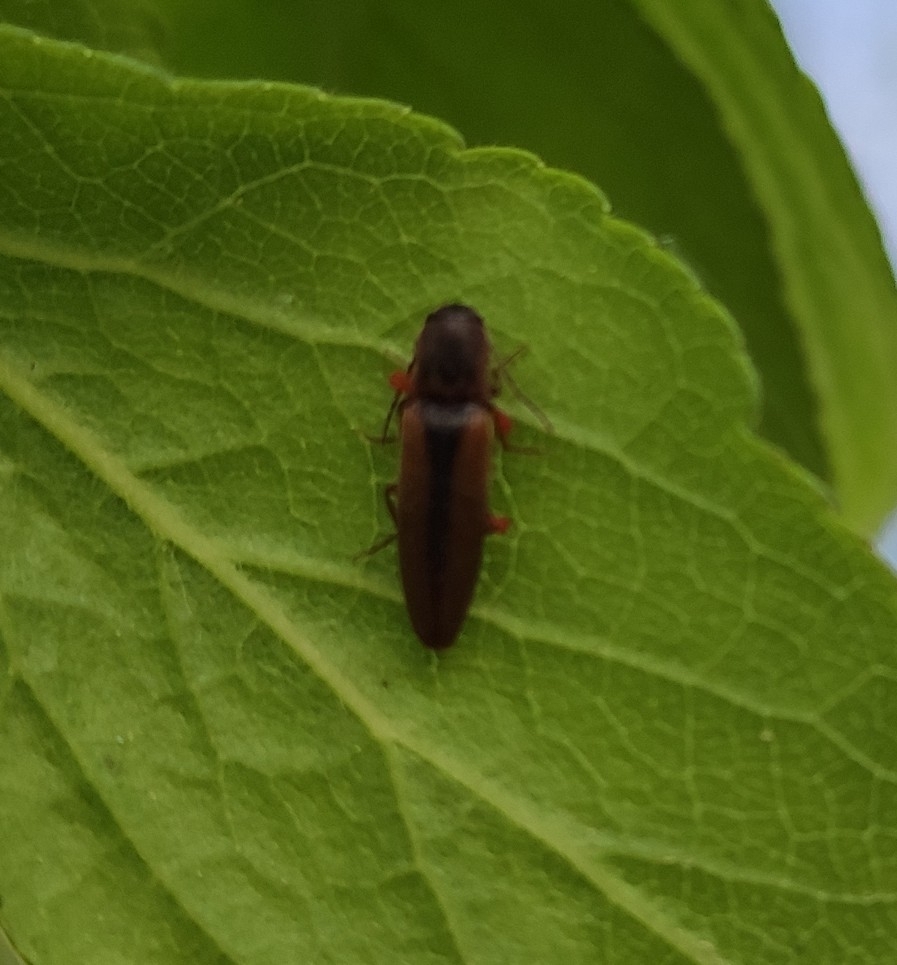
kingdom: Animalia
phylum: Arthropoda
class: Insecta
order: Coleoptera
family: Elateridae
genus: Dalopius
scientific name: Dalopius marginatus
